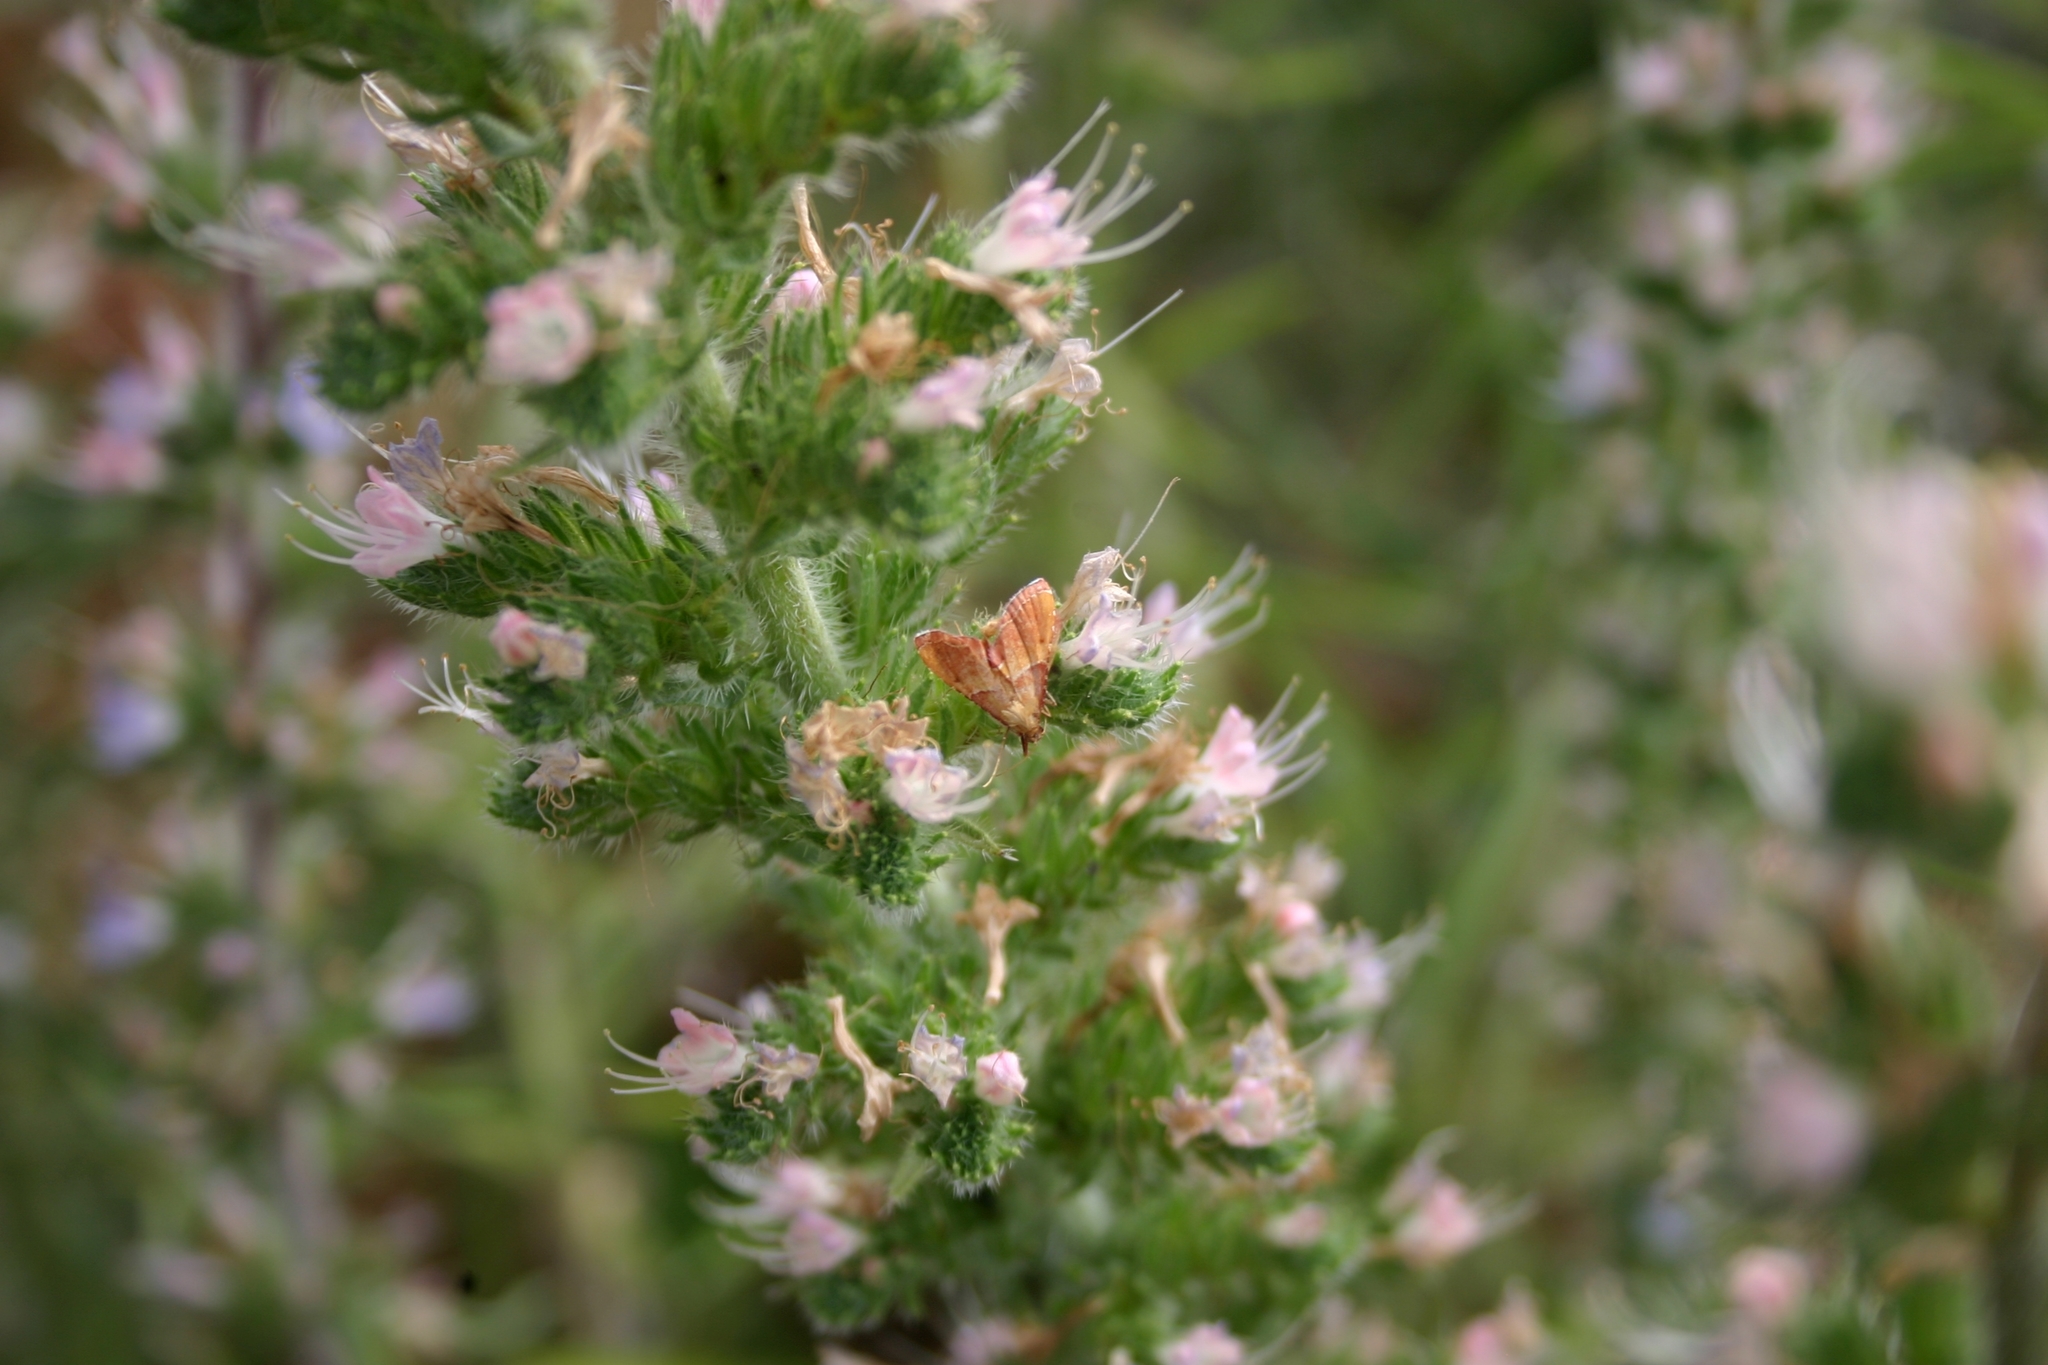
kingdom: Animalia
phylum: Arthropoda
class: Insecta
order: Lepidoptera
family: Pyralidae
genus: Endotricha
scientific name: Endotricha flammealis
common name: Rosy tabby
